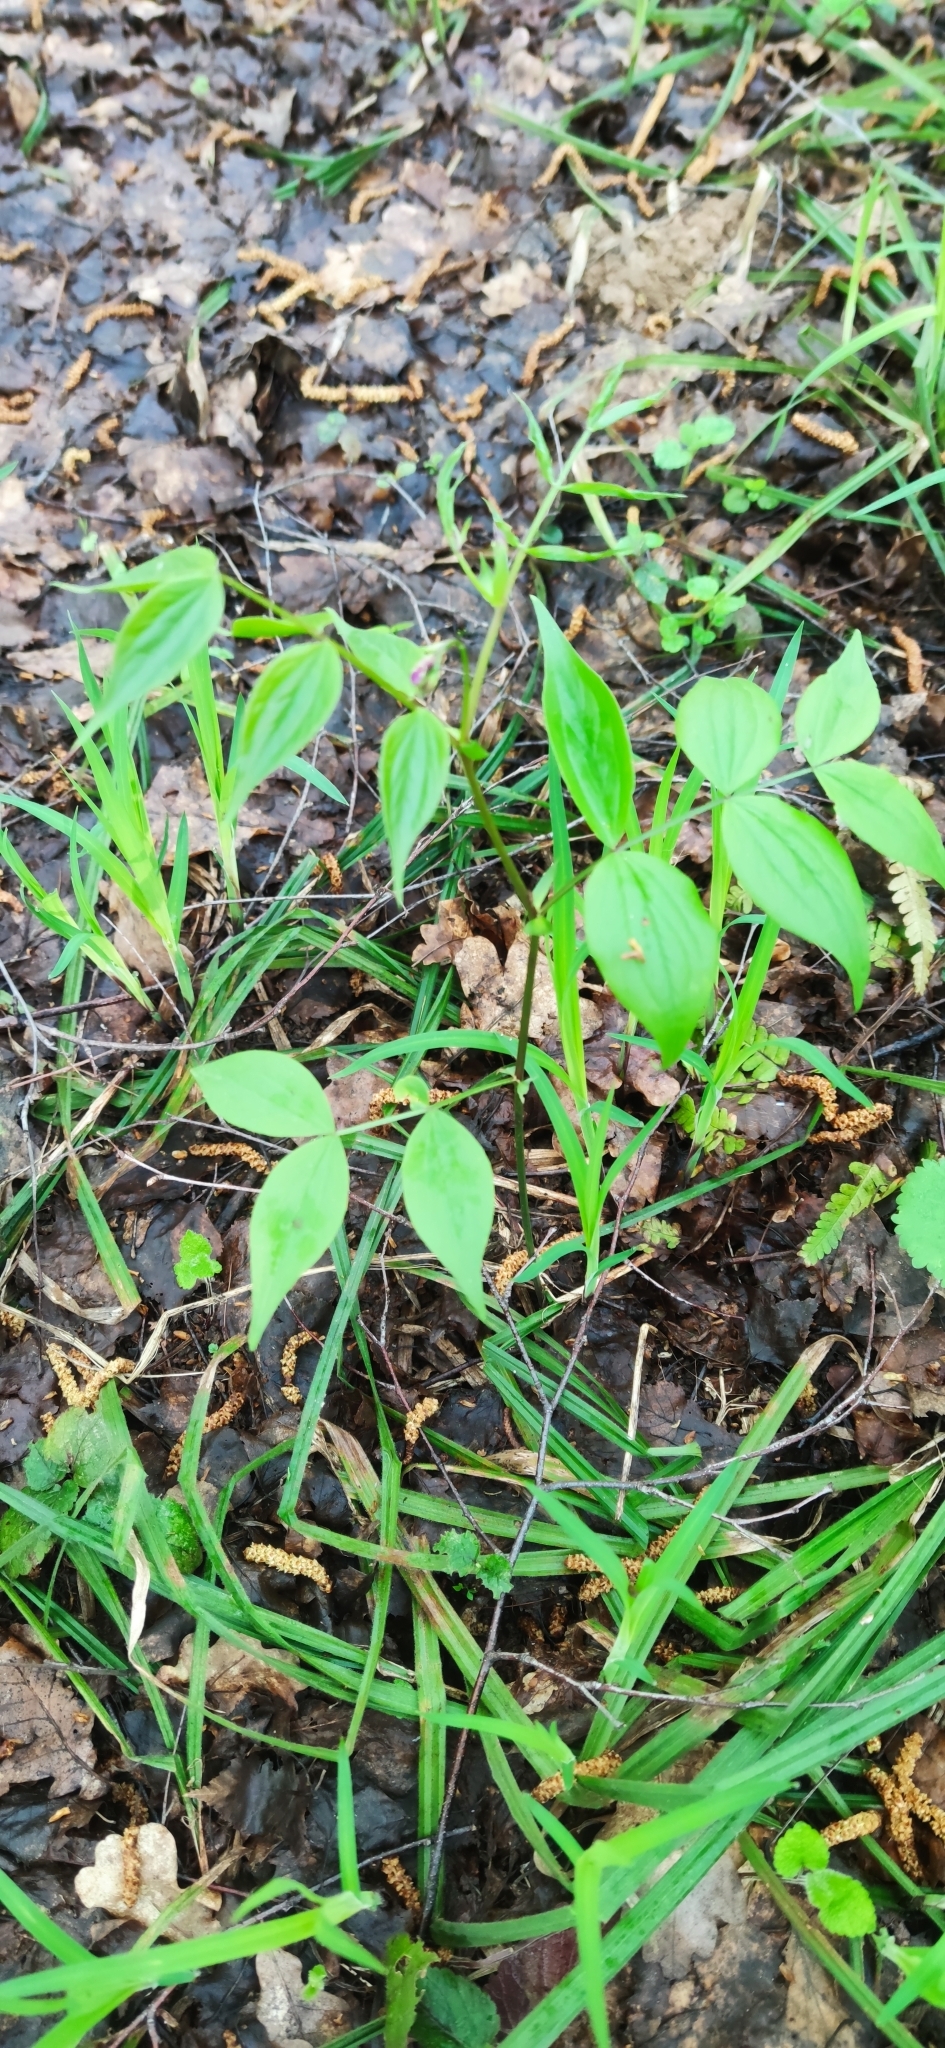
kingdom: Plantae
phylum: Tracheophyta
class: Magnoliopsida
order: Fabales
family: Fabaceae
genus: Lathyrus
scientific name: Lathyrus vernus
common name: Spring pea
